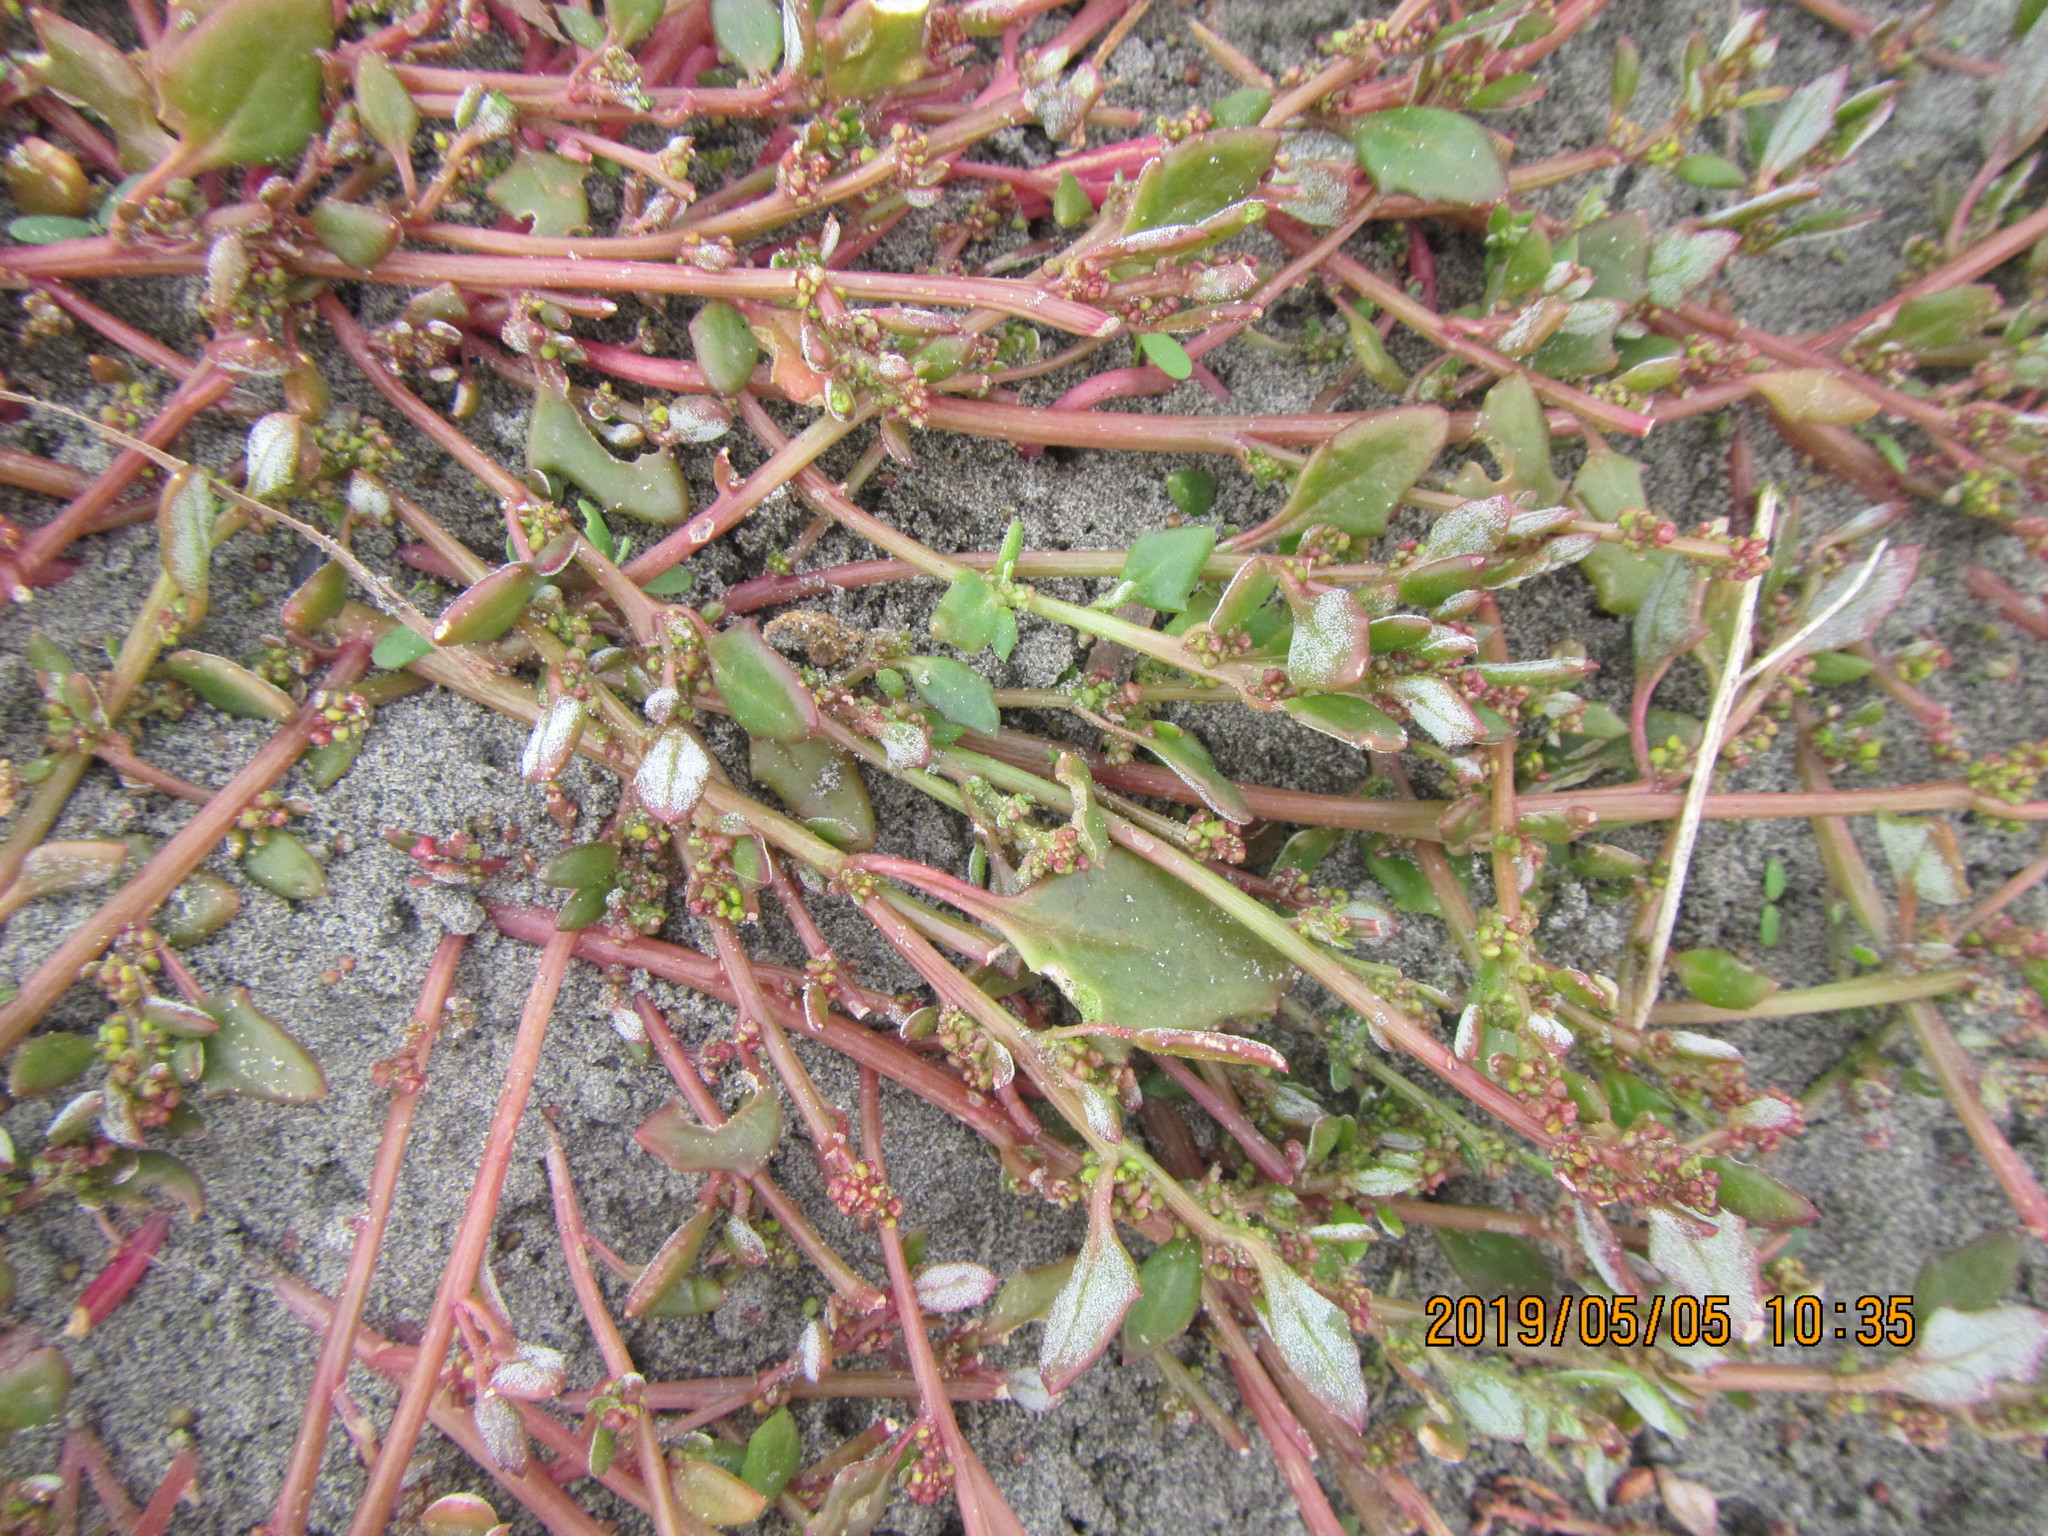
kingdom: Plantae
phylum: Tracheophyta
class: Magnoliopsida
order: Caryophyllales
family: Amaranthaceae
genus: Oxybasis
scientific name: Oxybasis ambigua
